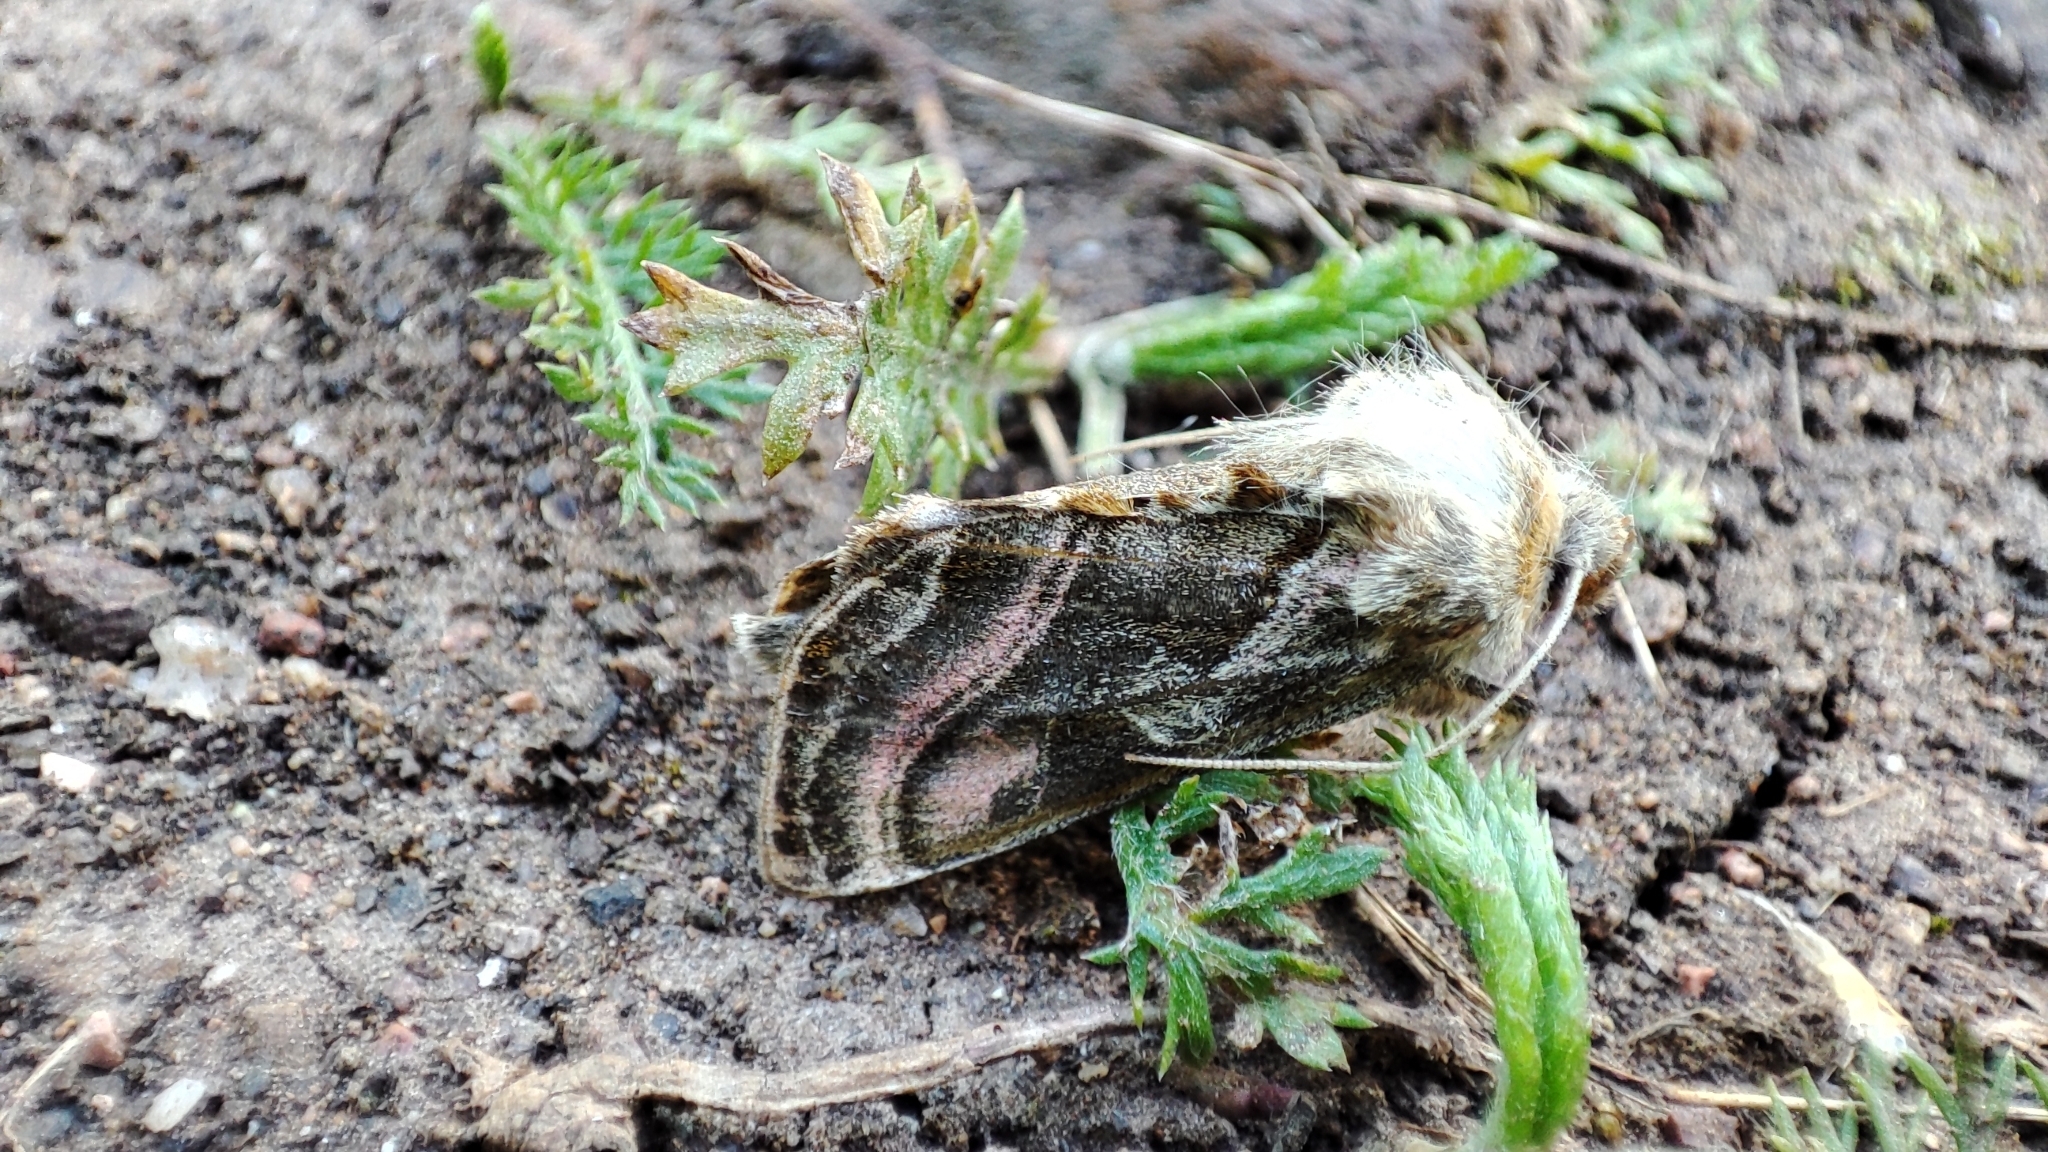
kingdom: Animalia
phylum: Arthropoda
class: Insecta
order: Lepidoptera
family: Noctuidae
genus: Euchalcia
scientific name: Euchalcia variabilis
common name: Purple-shaded gem
